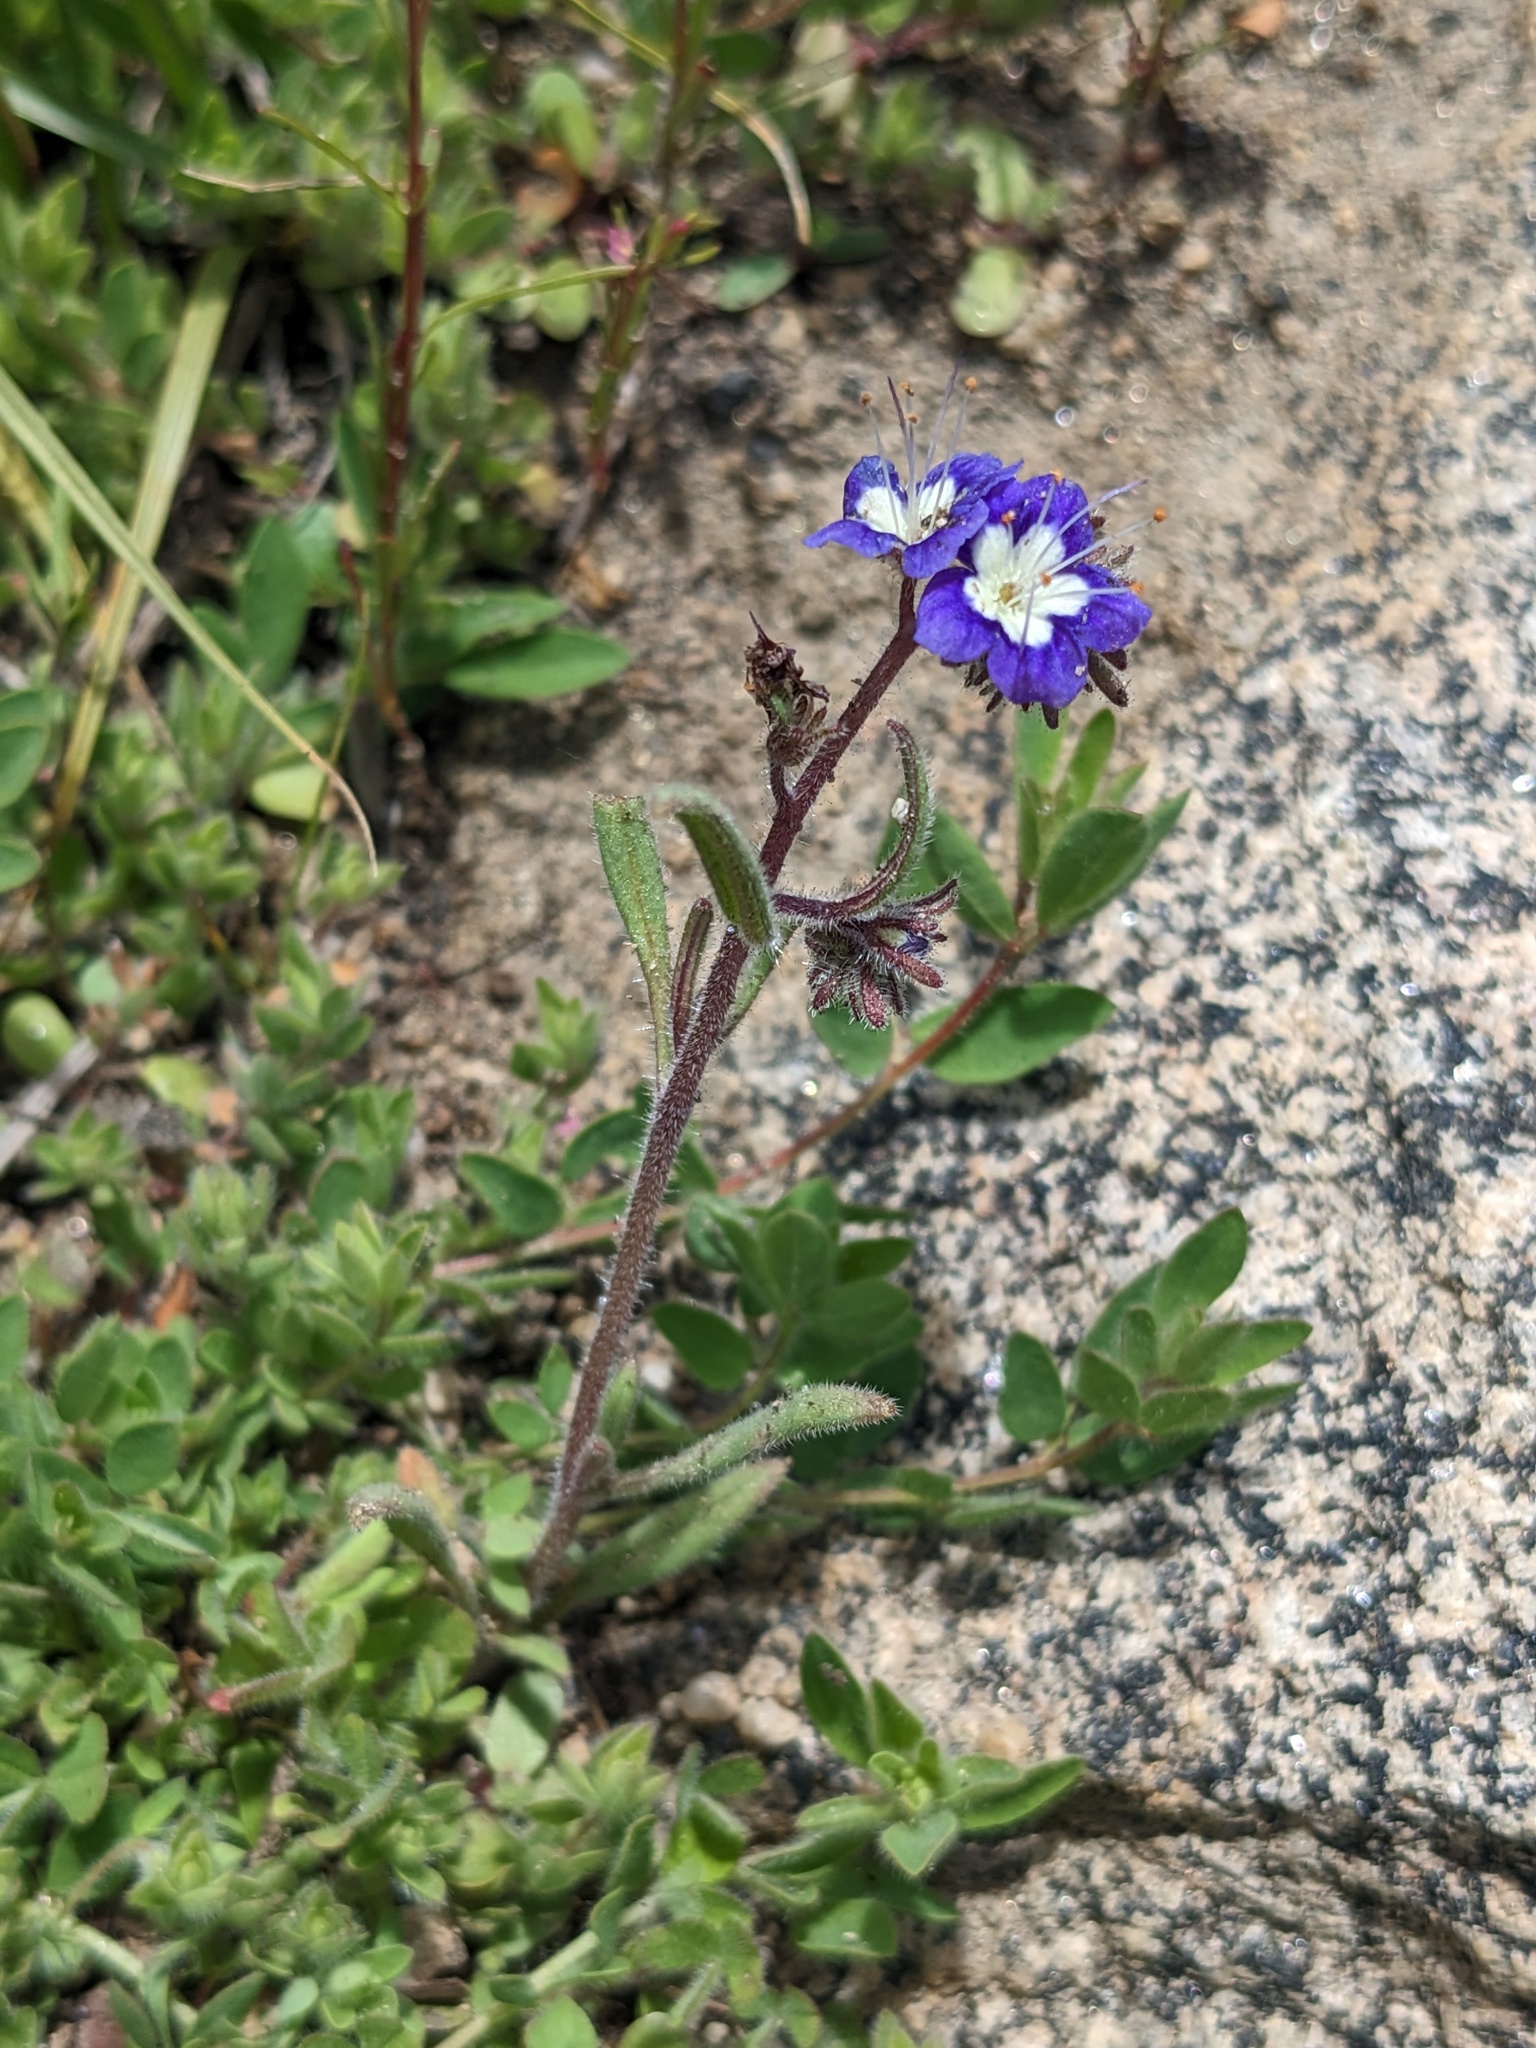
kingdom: Plantae
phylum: Tracheophyta
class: Magnoliopsida
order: Boraginales
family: Hydrophyllaceae
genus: Phacelia
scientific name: Phacelia orogenes
